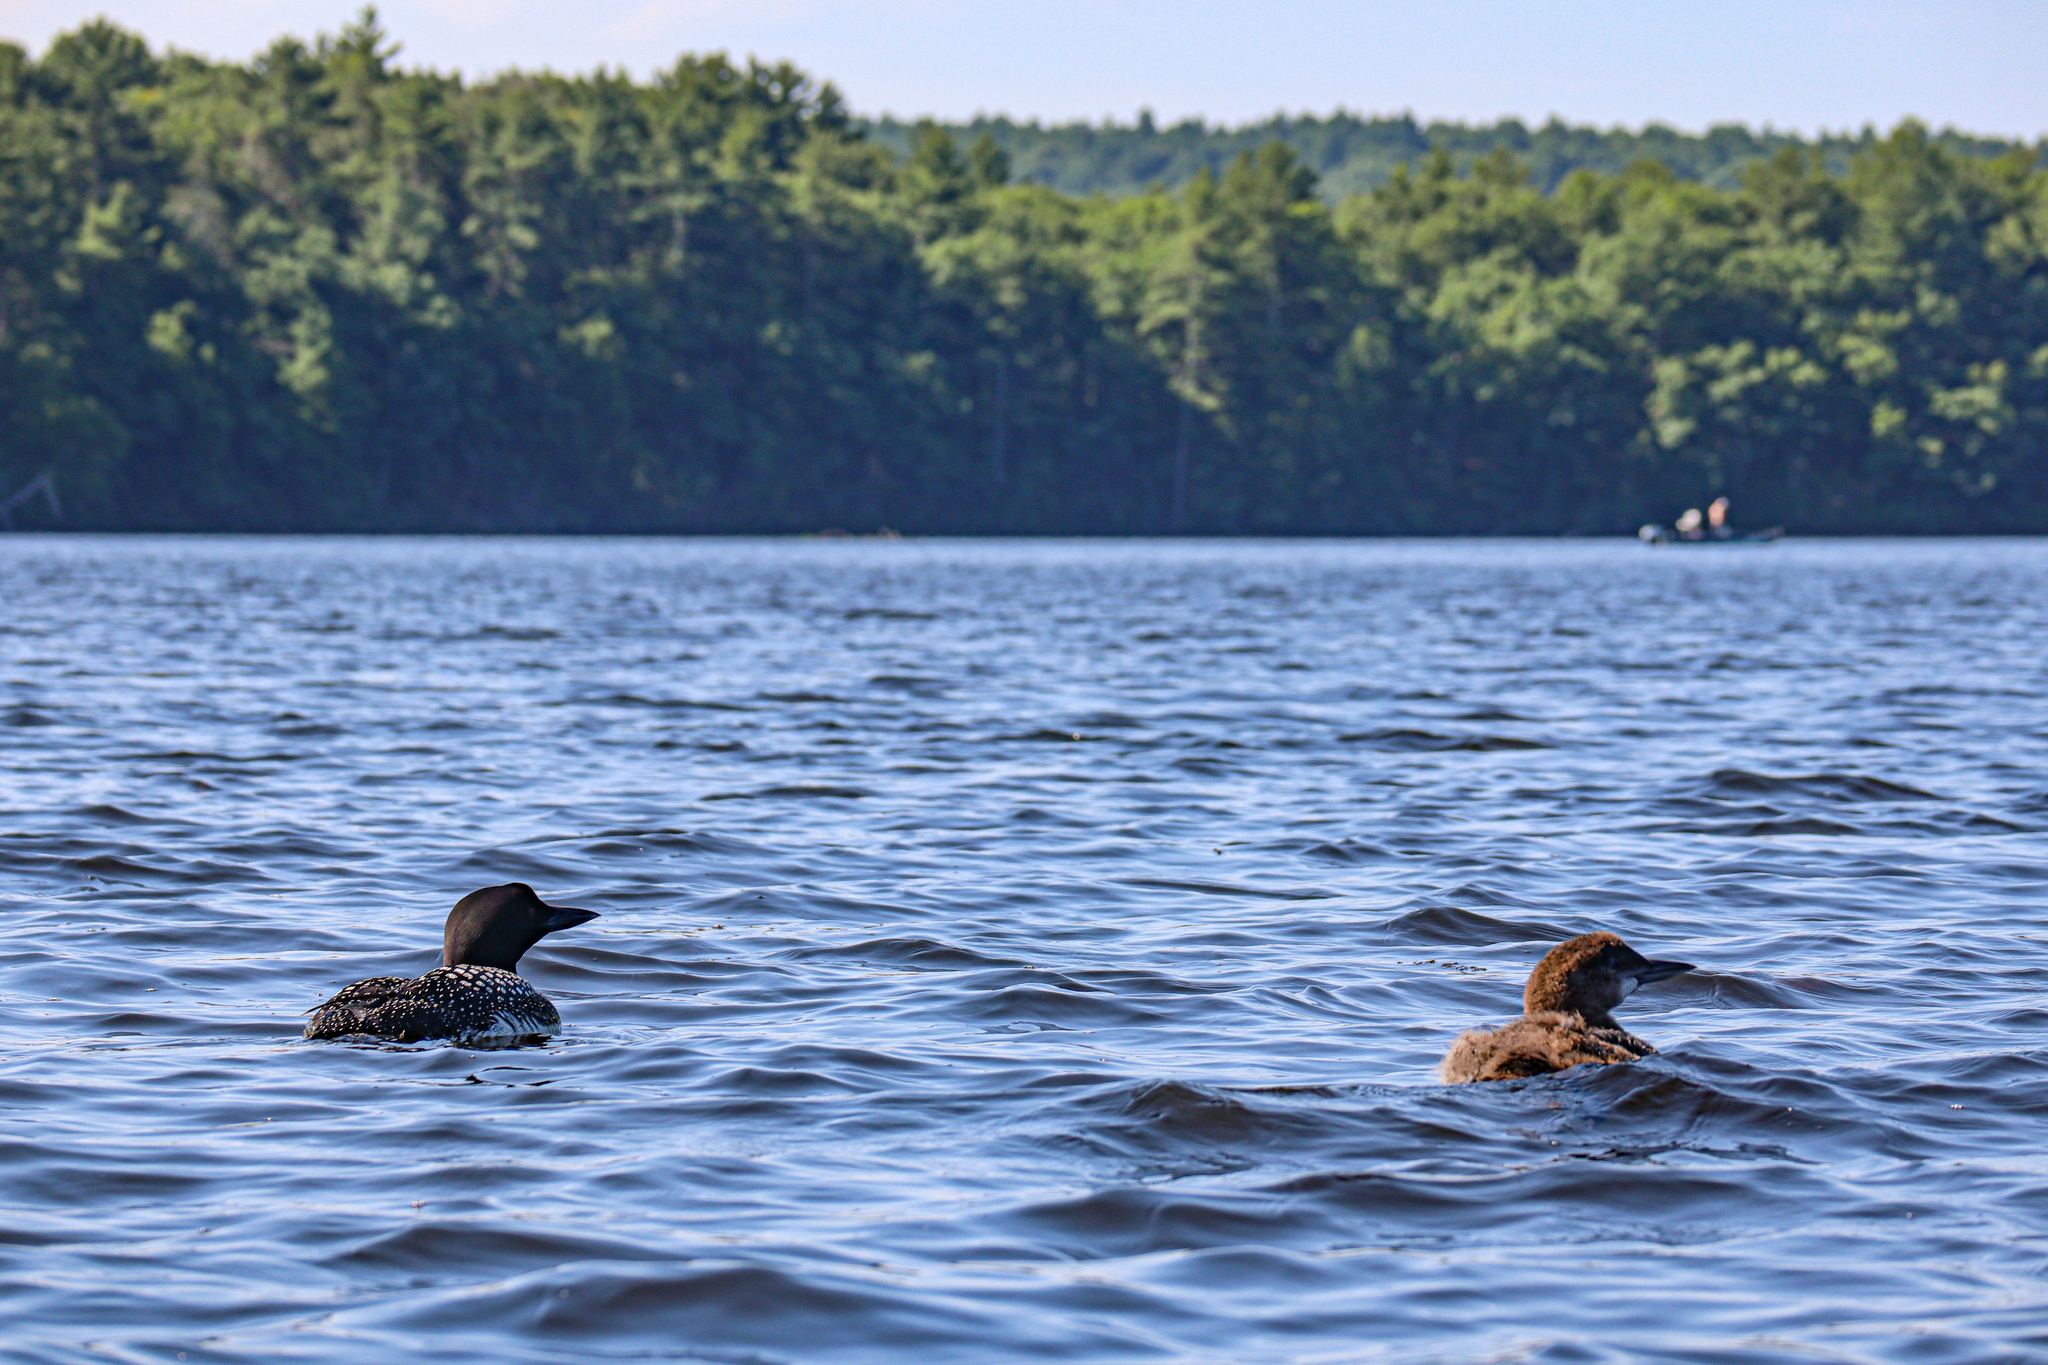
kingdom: Animalia
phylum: Chordata
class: Aves
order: Gaviiformes
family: Gaviidae
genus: Gavia
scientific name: Gavia immer
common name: Common loon
